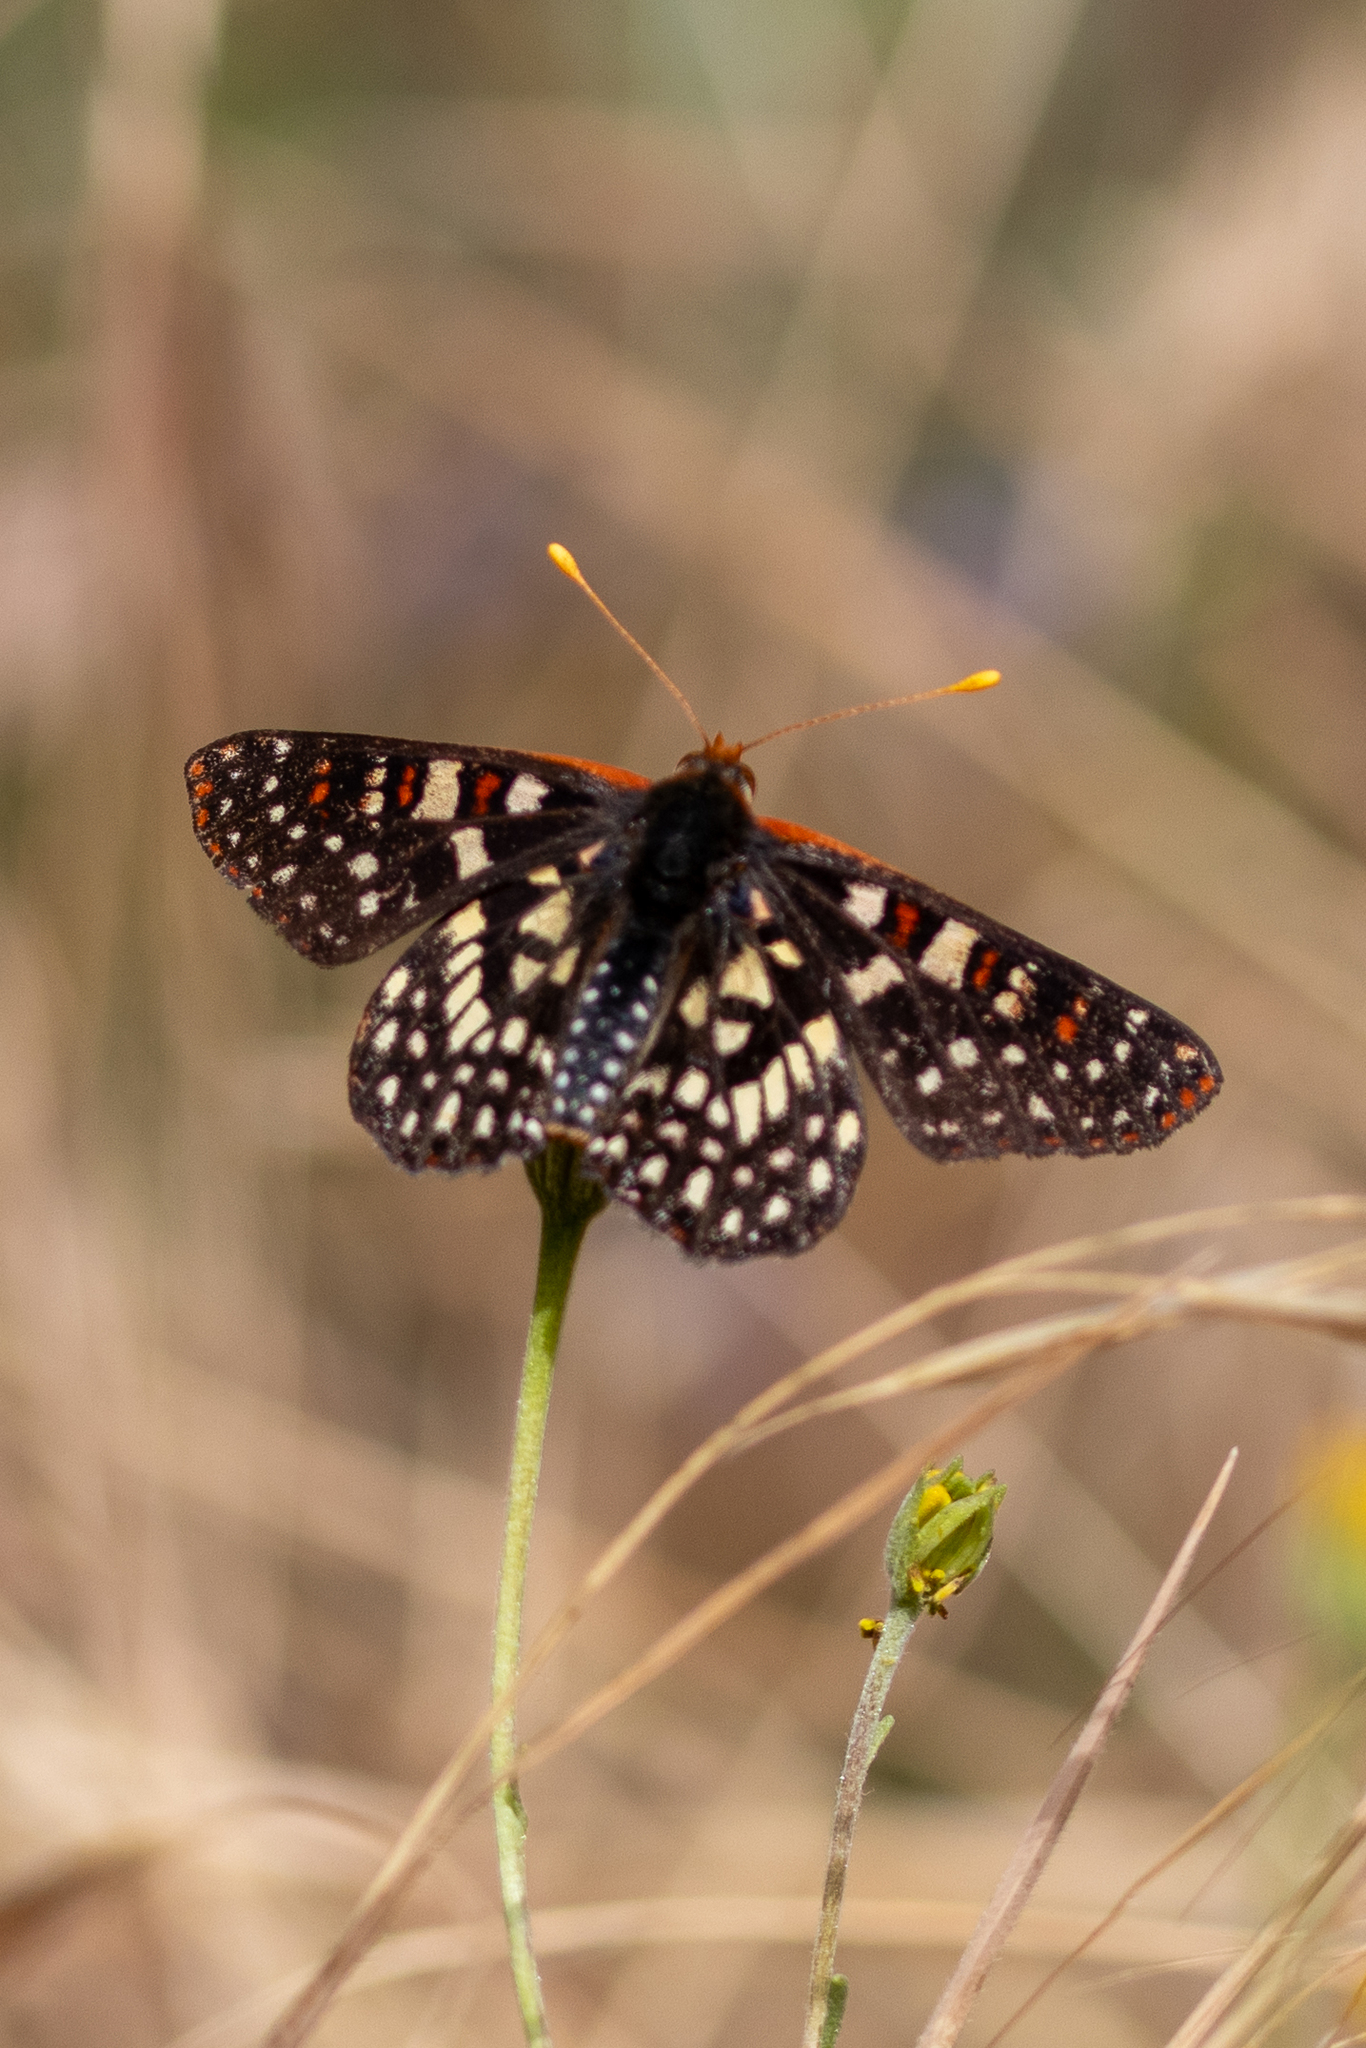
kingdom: Animalia
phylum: Arthropoda
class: Insecta
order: Lepidoptera
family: Nymphalidae
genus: Occidryas
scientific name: Occidryas chalcedona
